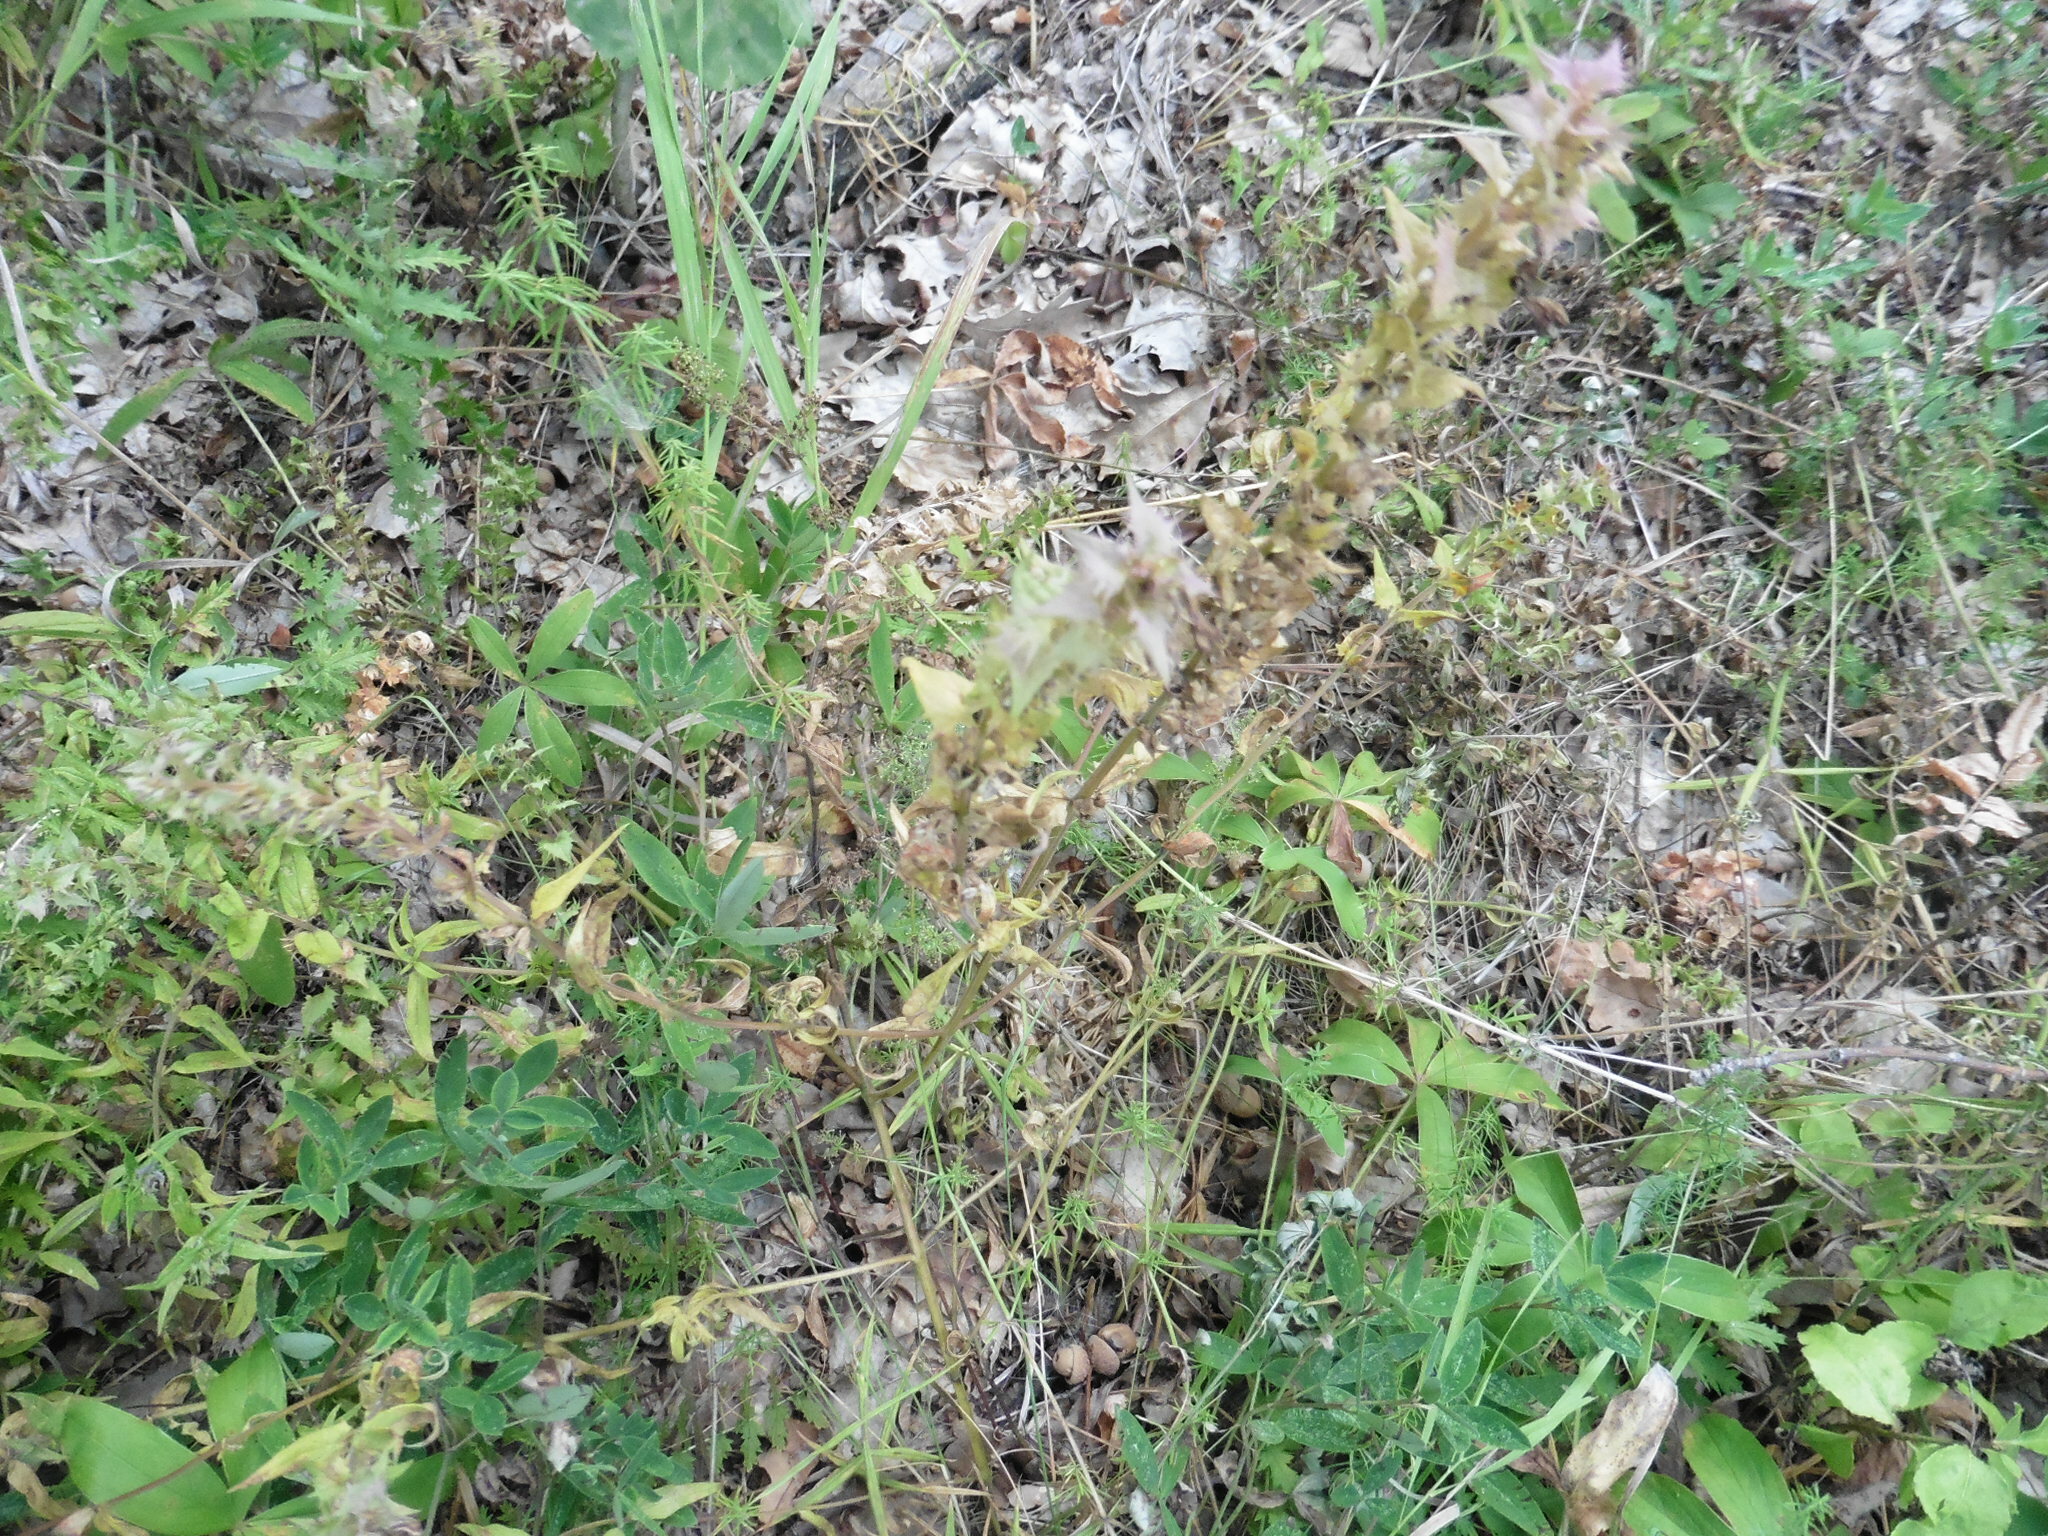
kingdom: Plantae
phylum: Tracheophyta
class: Magnoliopsida
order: Lamiales
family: Orobanchaceae
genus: Melampyrum
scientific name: Melampyrum nemorosum
